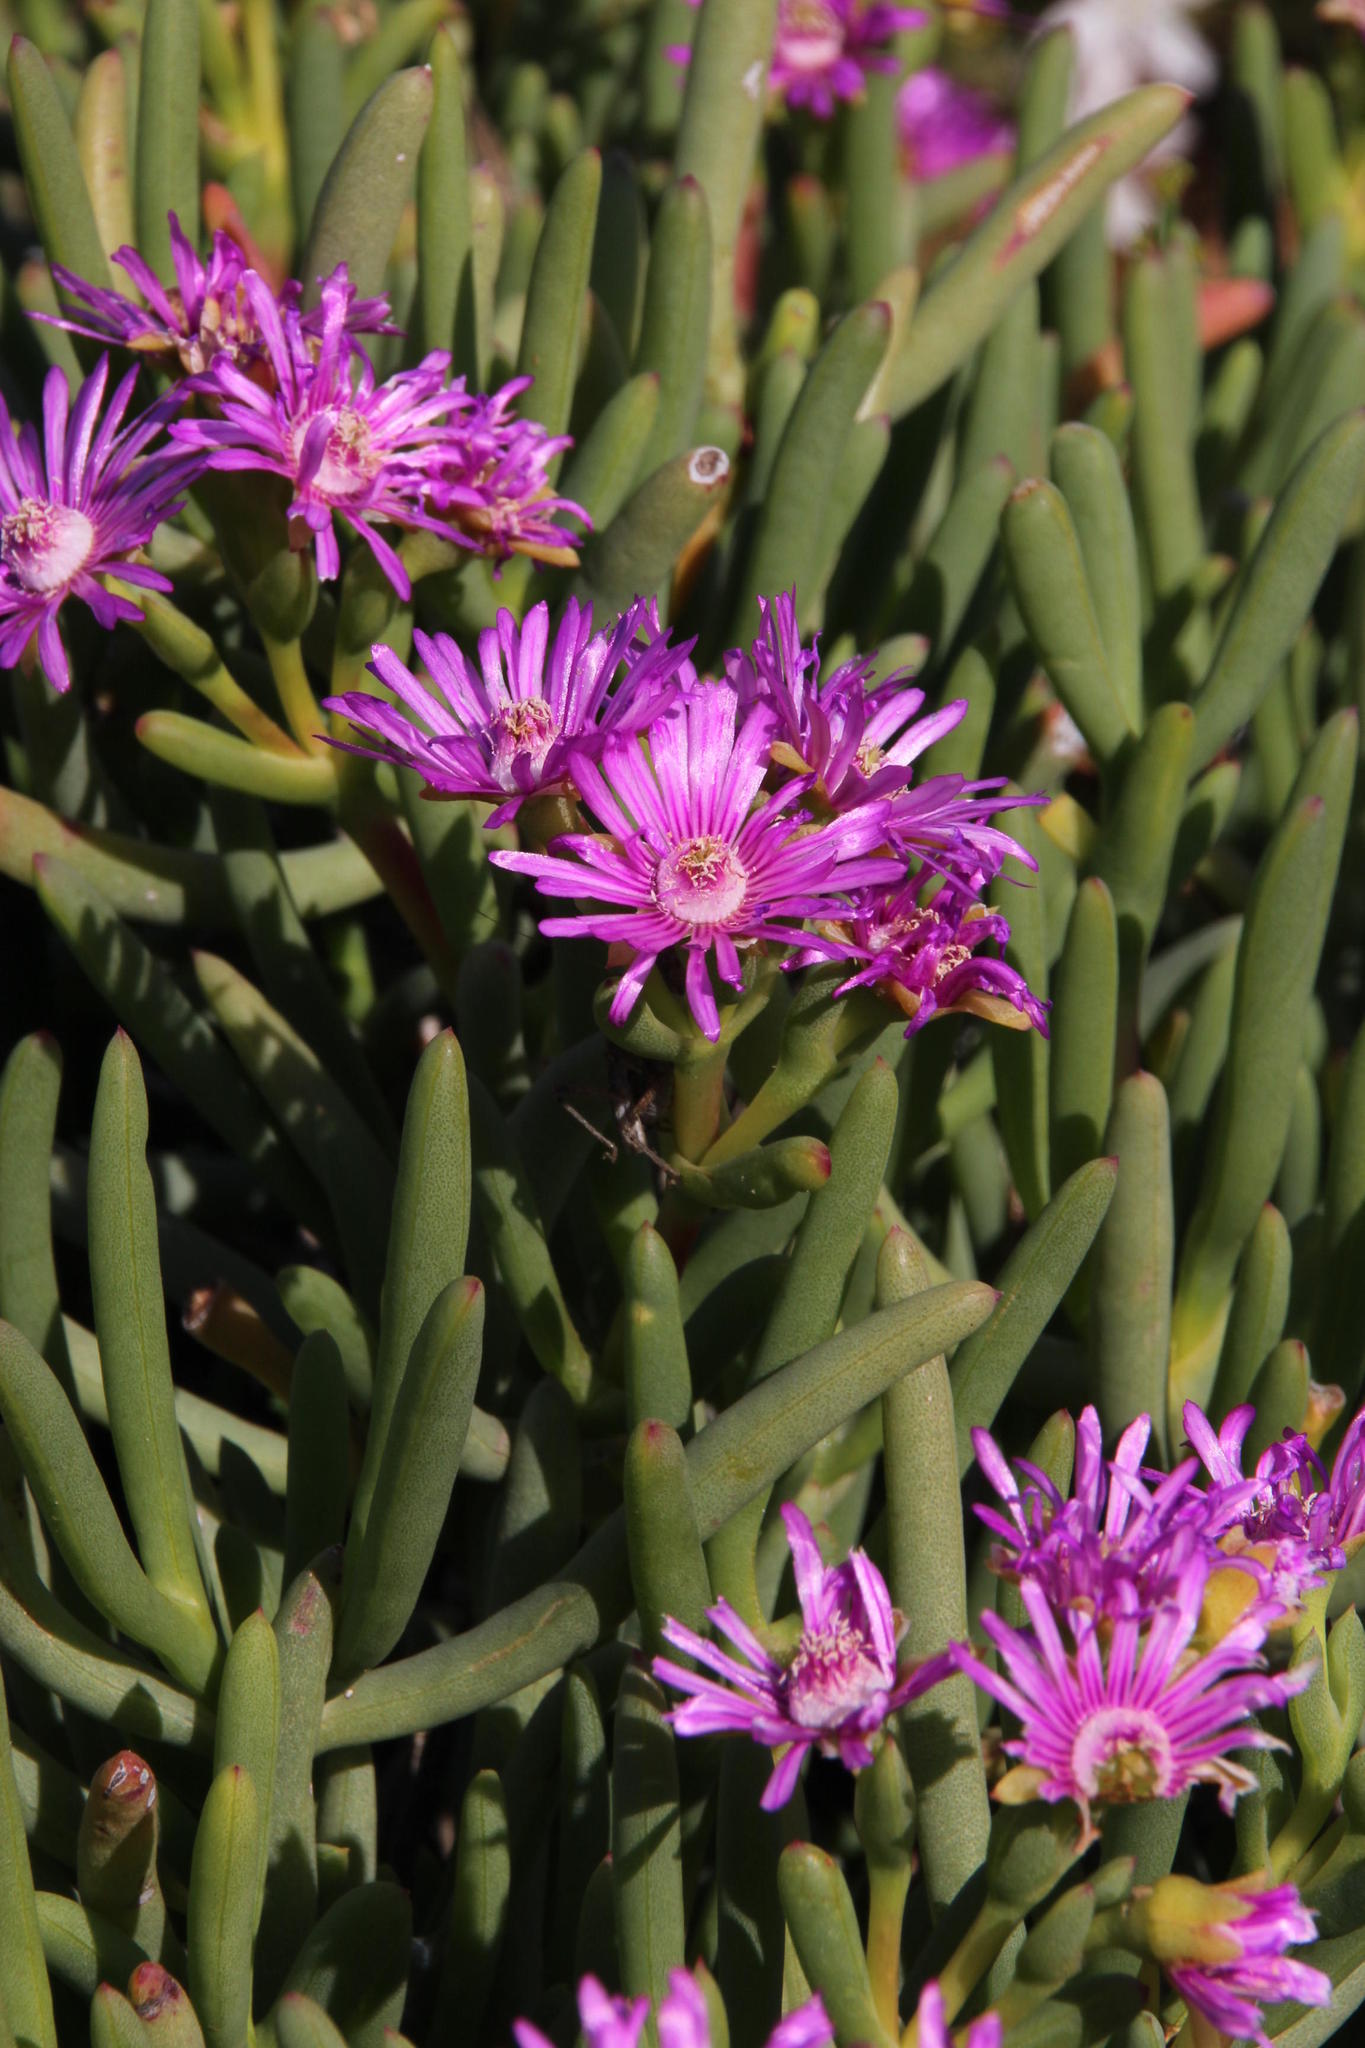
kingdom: Plantae
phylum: Tracheophyta
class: Magnoliopsida
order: Caryophyllales
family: Aizoaceae
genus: Ruschia
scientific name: Ruschia caroli
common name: Shrubby dewplant
